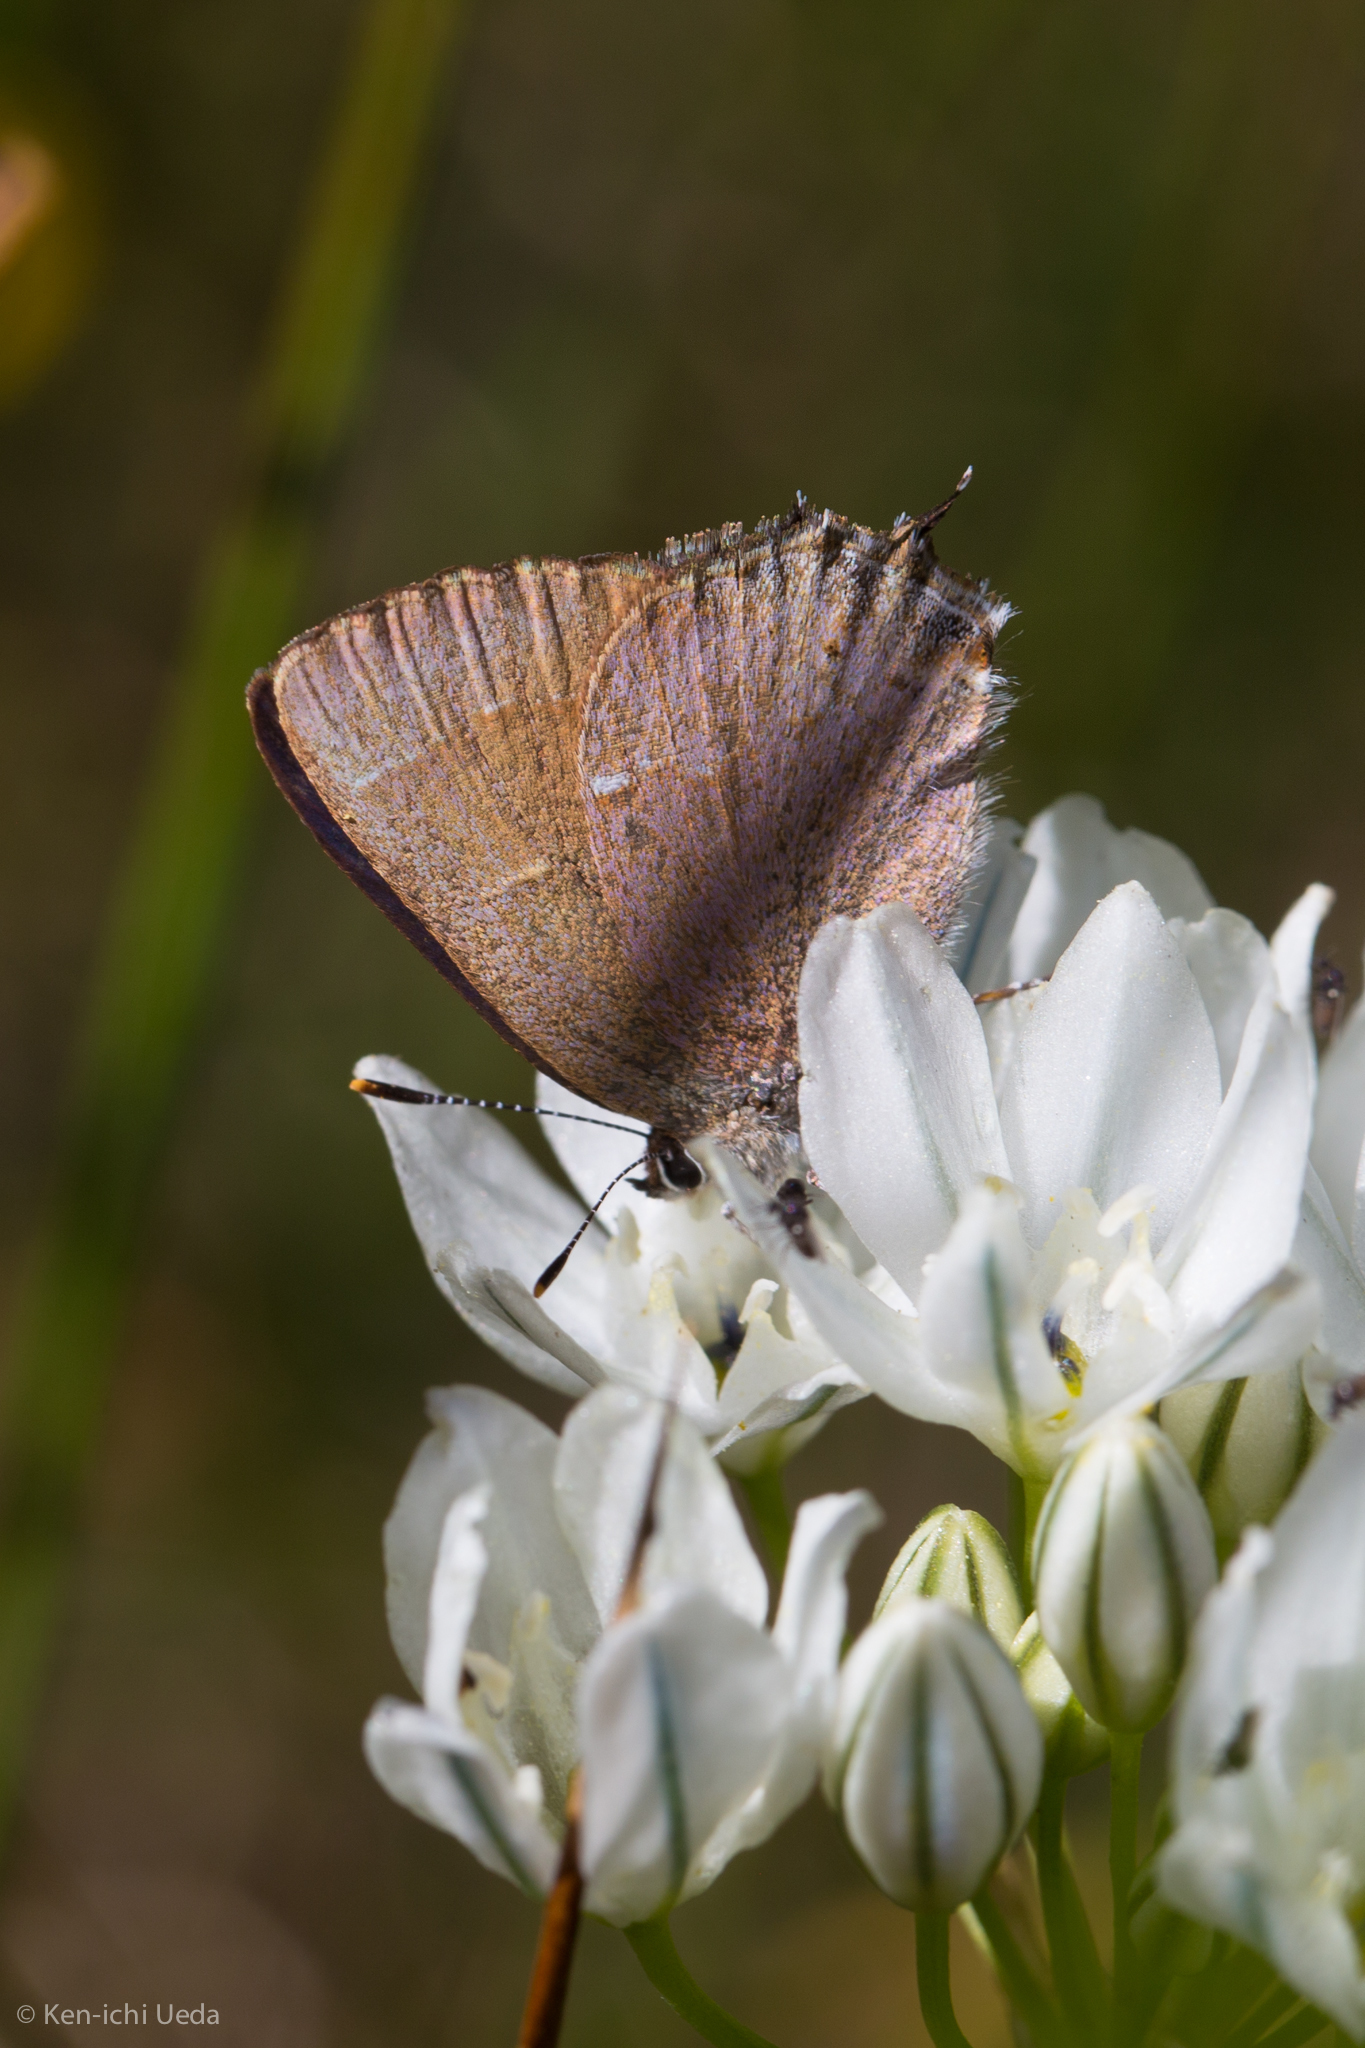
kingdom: Animalia
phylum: Arthropoda
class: Insecta
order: Lepidoptera
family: Lycaenidae
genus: Mitoura
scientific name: Mitoura nelsoni
